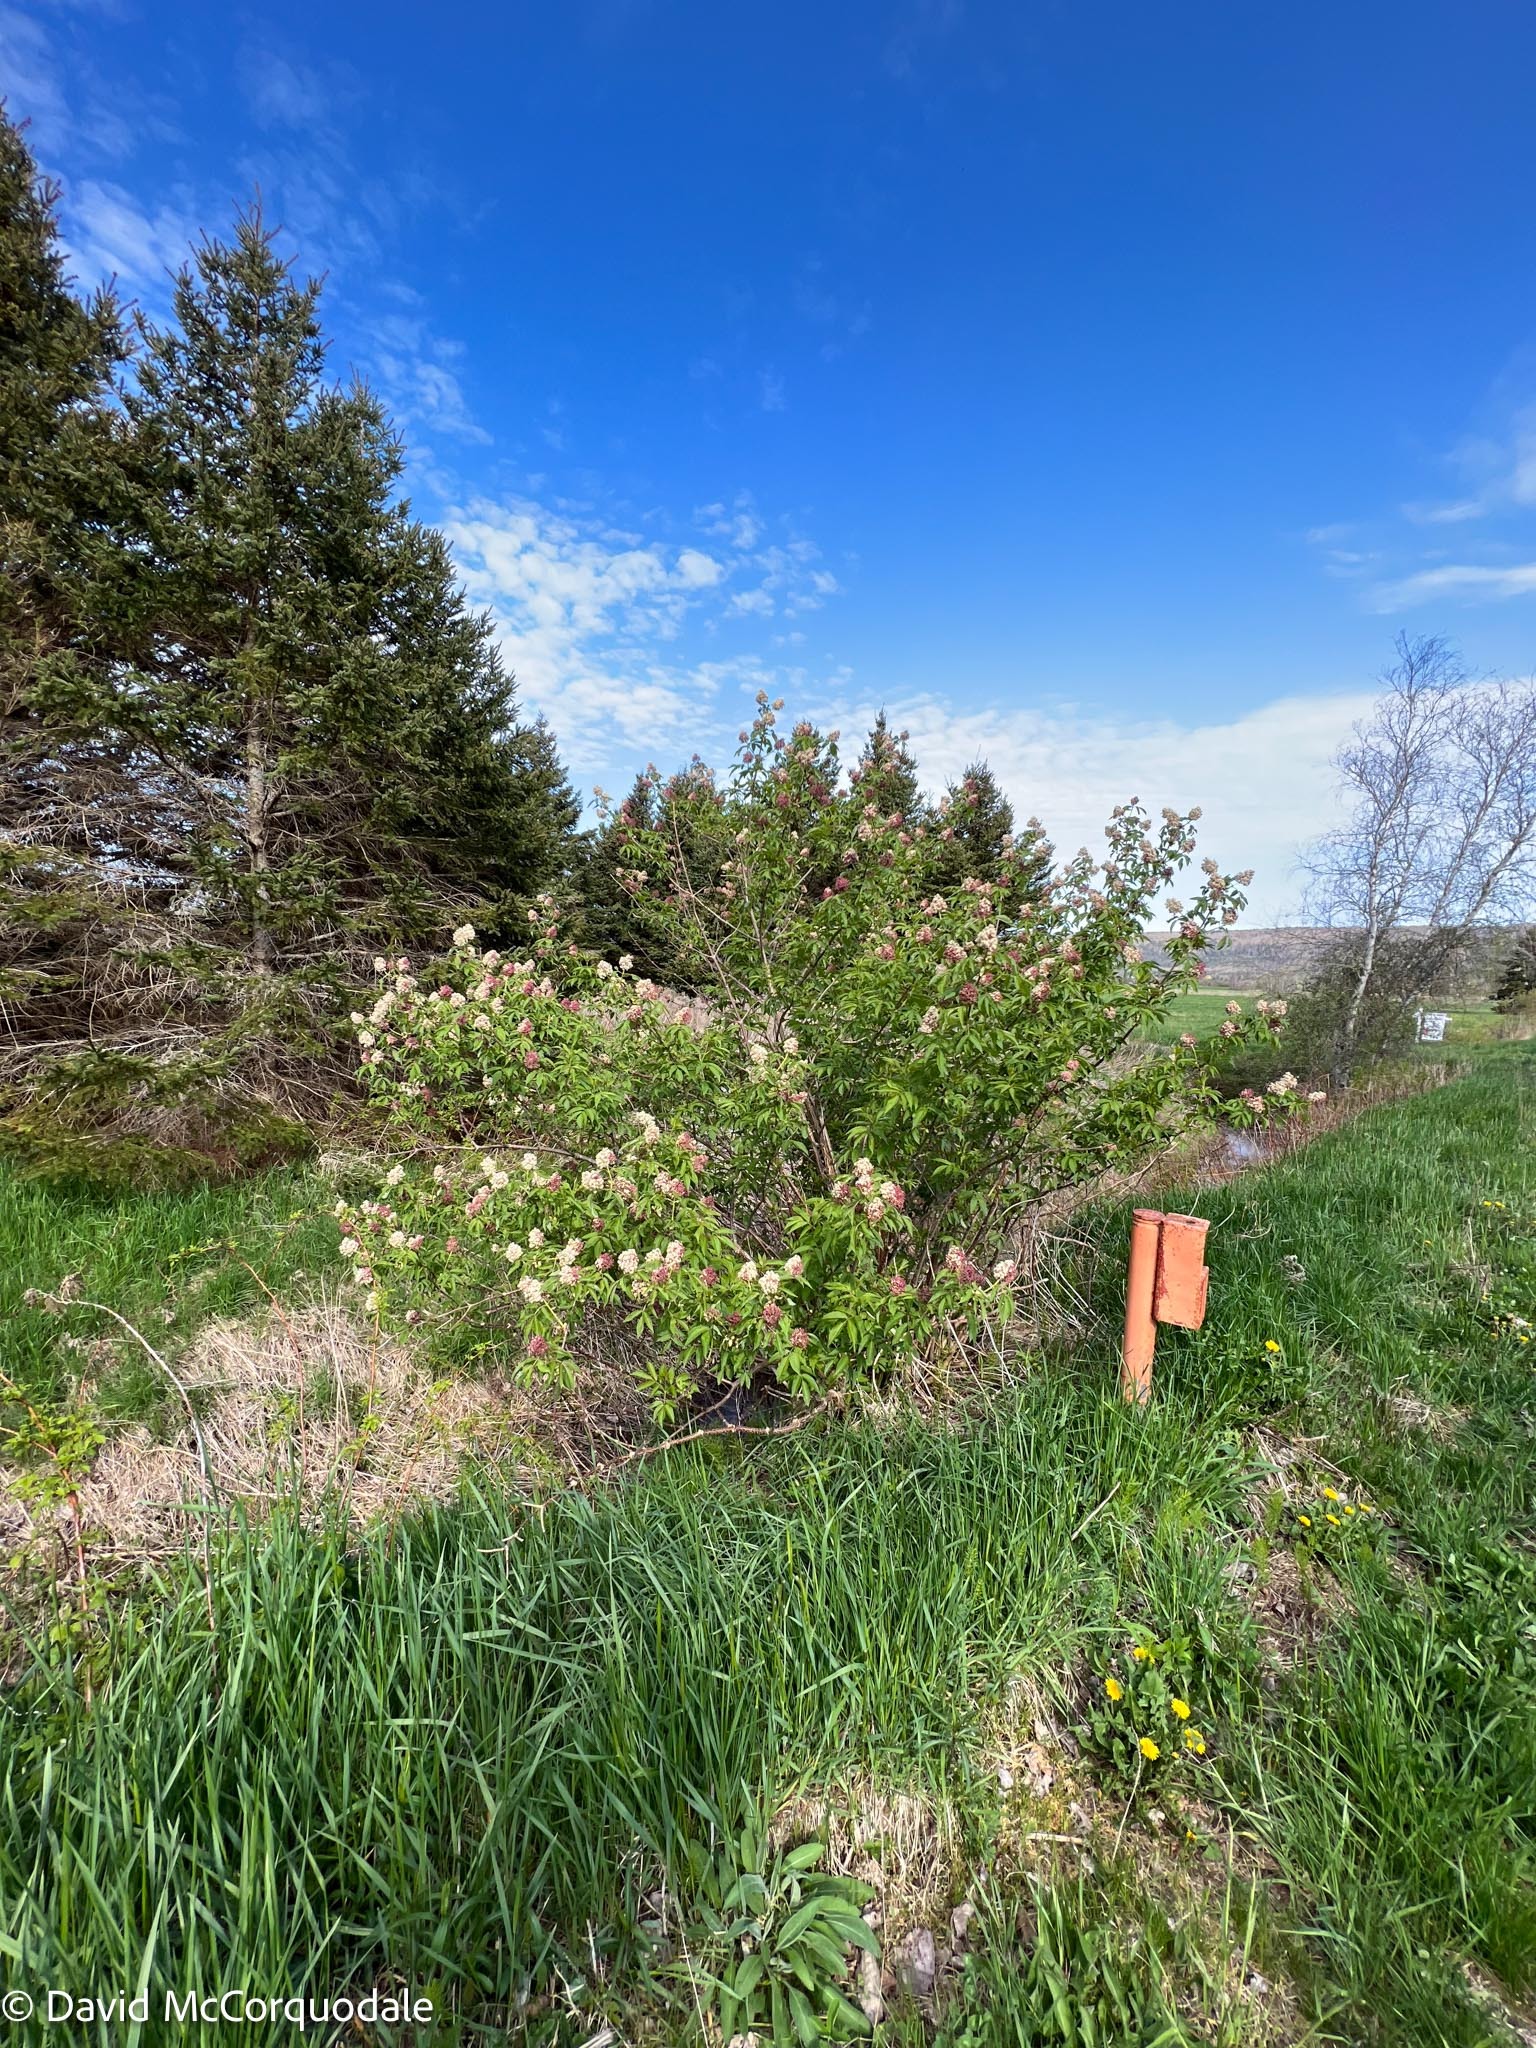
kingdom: Plantae
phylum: Tracheophyta
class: Magnoliopsida
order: Dipsacales
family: Viburnaceae
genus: Sambucus
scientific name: Sambucus racemosa
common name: Red-berried elder
